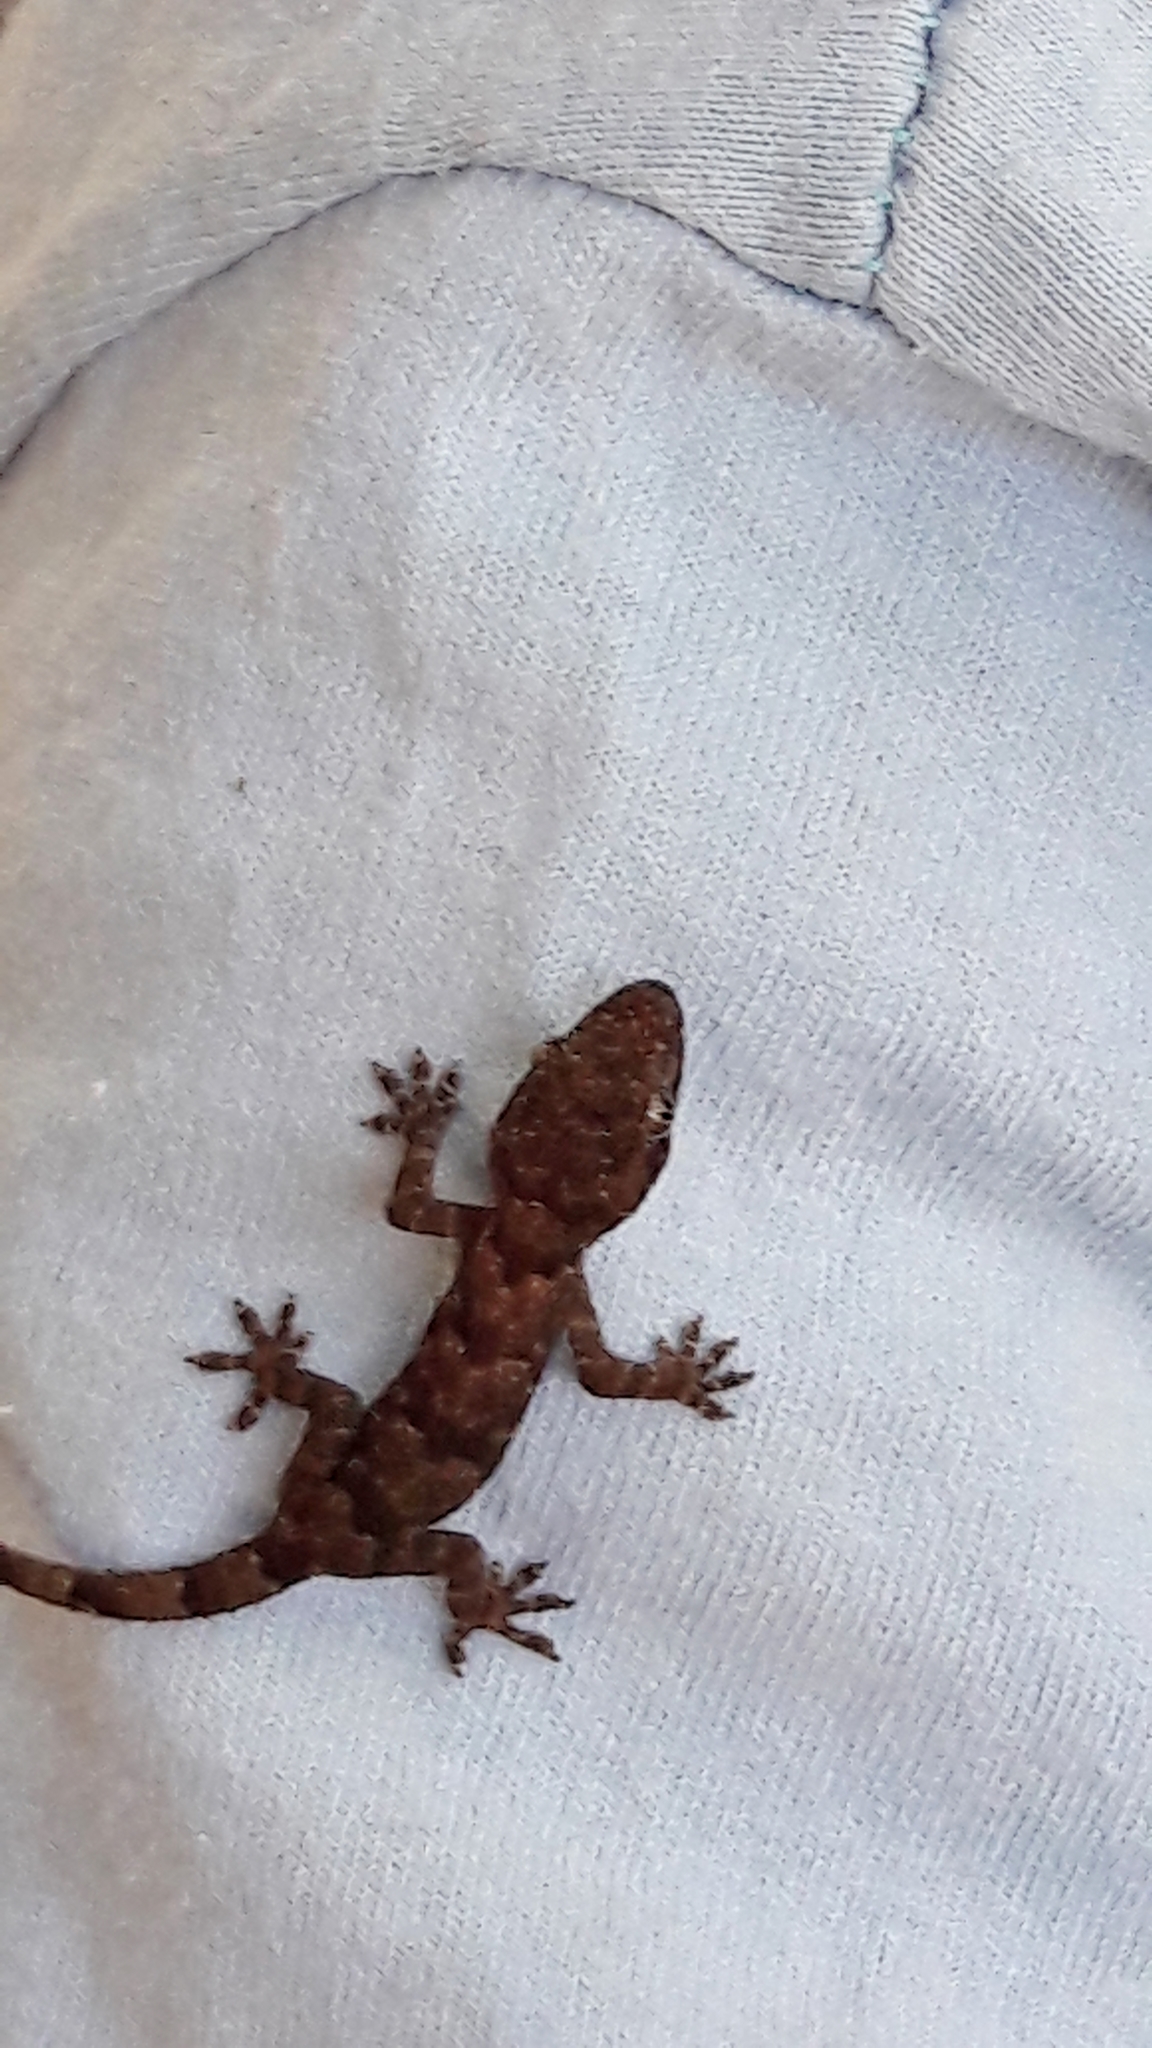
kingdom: Animalia
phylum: Chordata
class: Squamata
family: Gekkonidae
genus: Hemidactylus
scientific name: Hemidactylus mabouia
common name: House gecko
